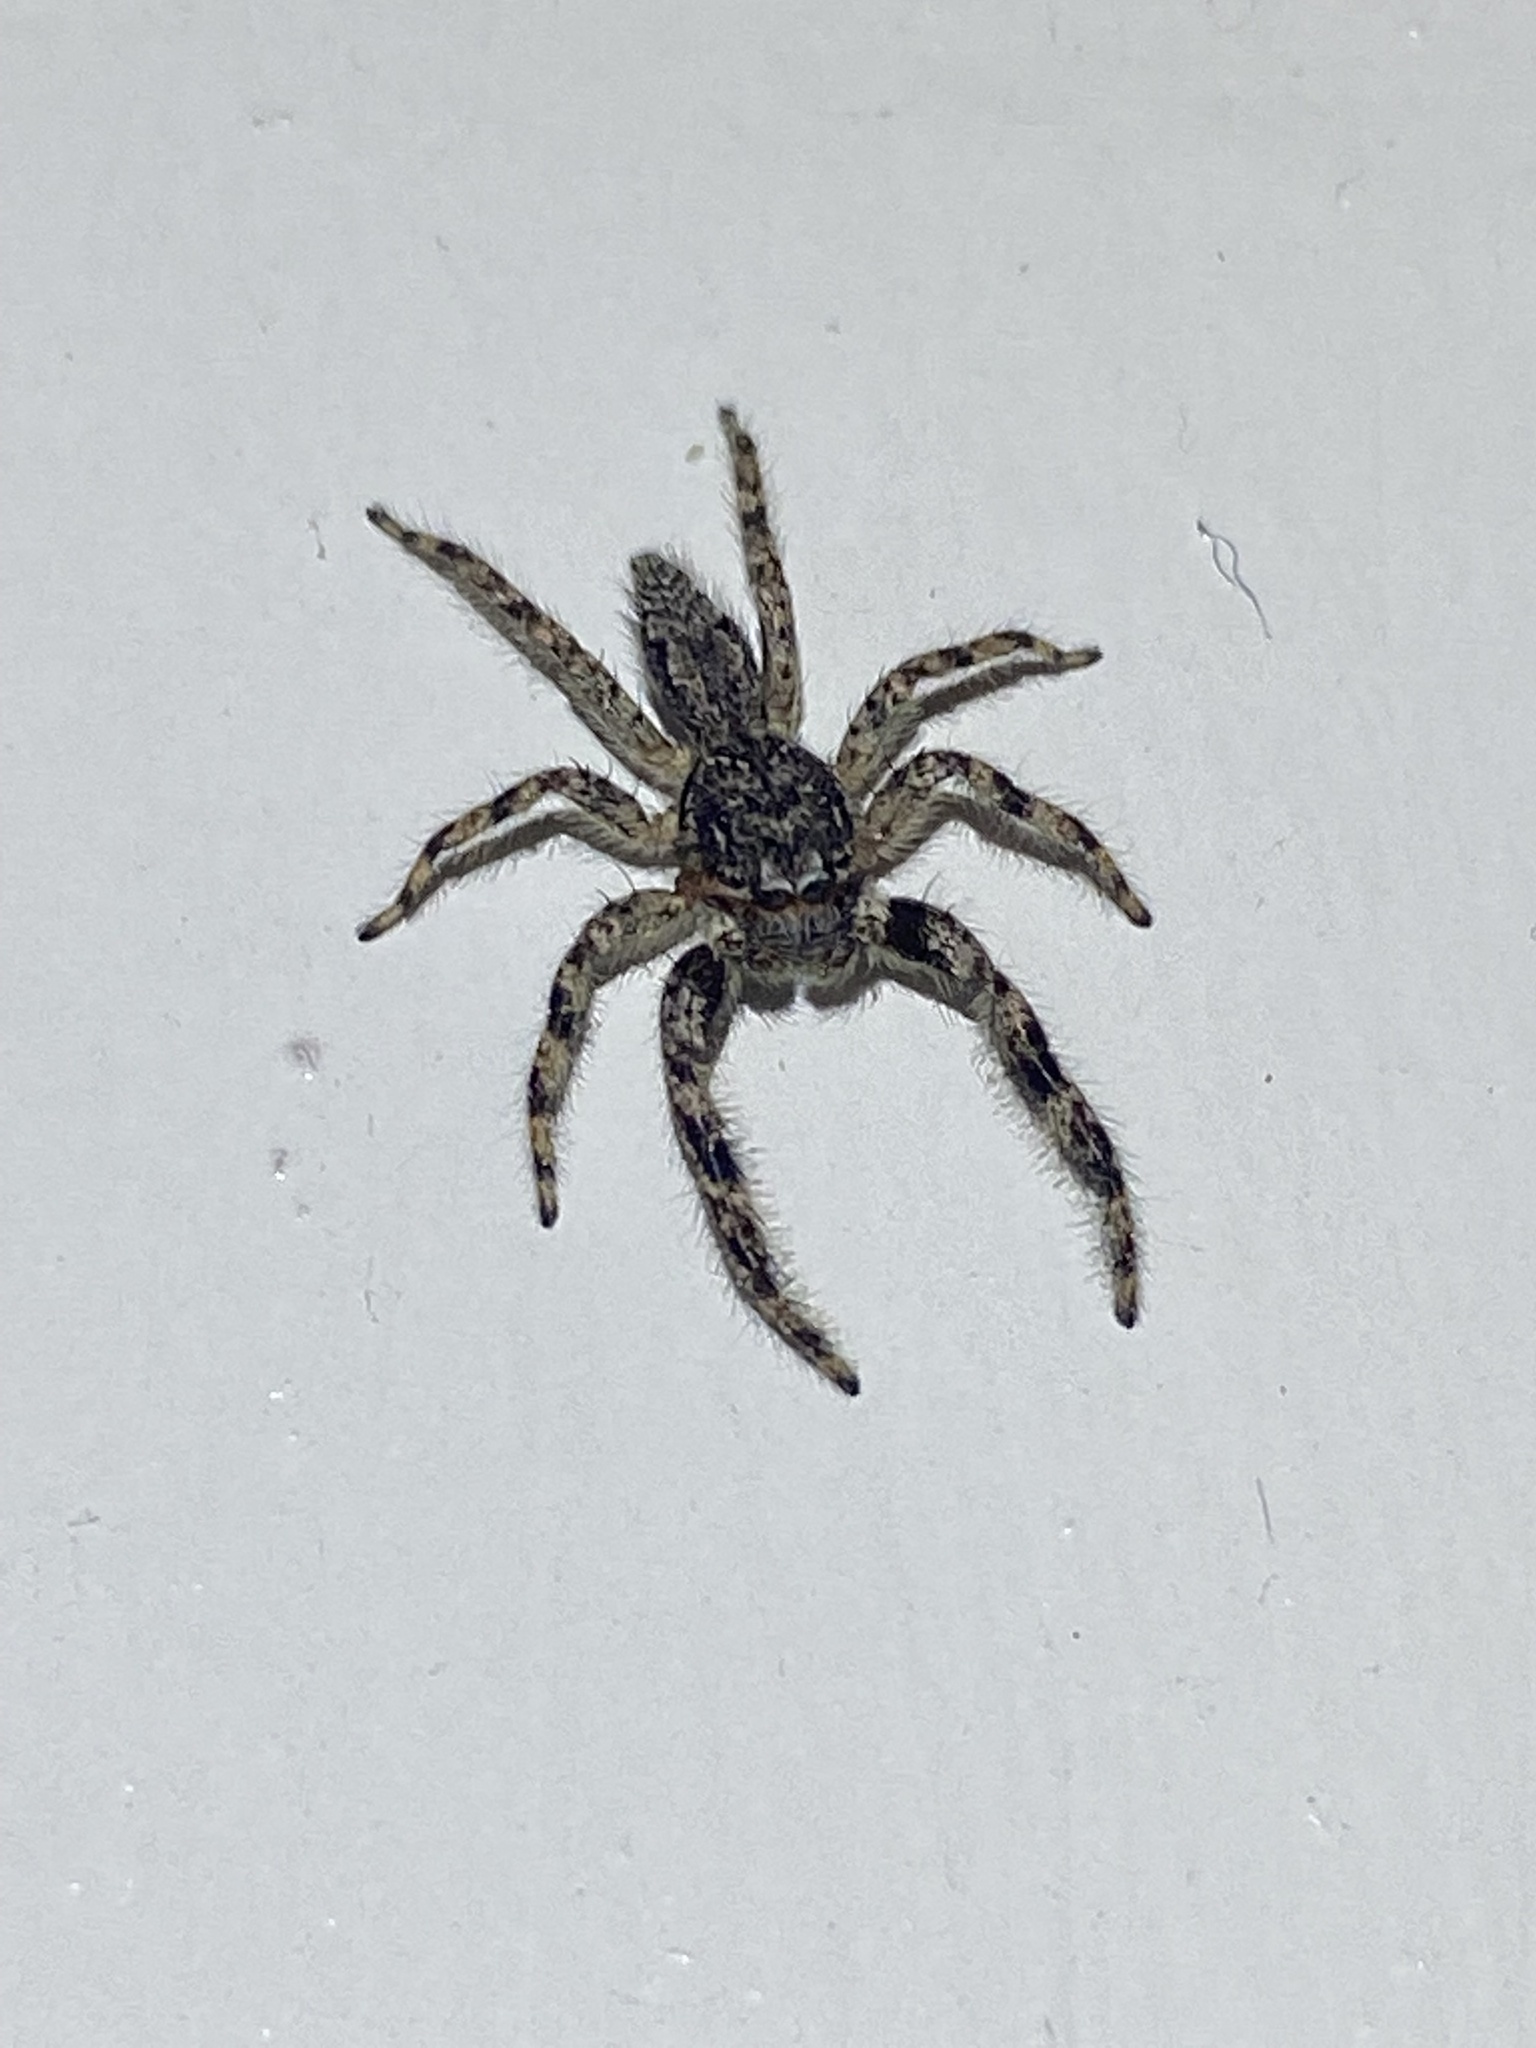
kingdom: Animalia
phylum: Arthropoda
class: Arachnida
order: Araneae
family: Salticidae
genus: Platycryptus
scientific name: Platycryptus undatus
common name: Tan jumping spider
